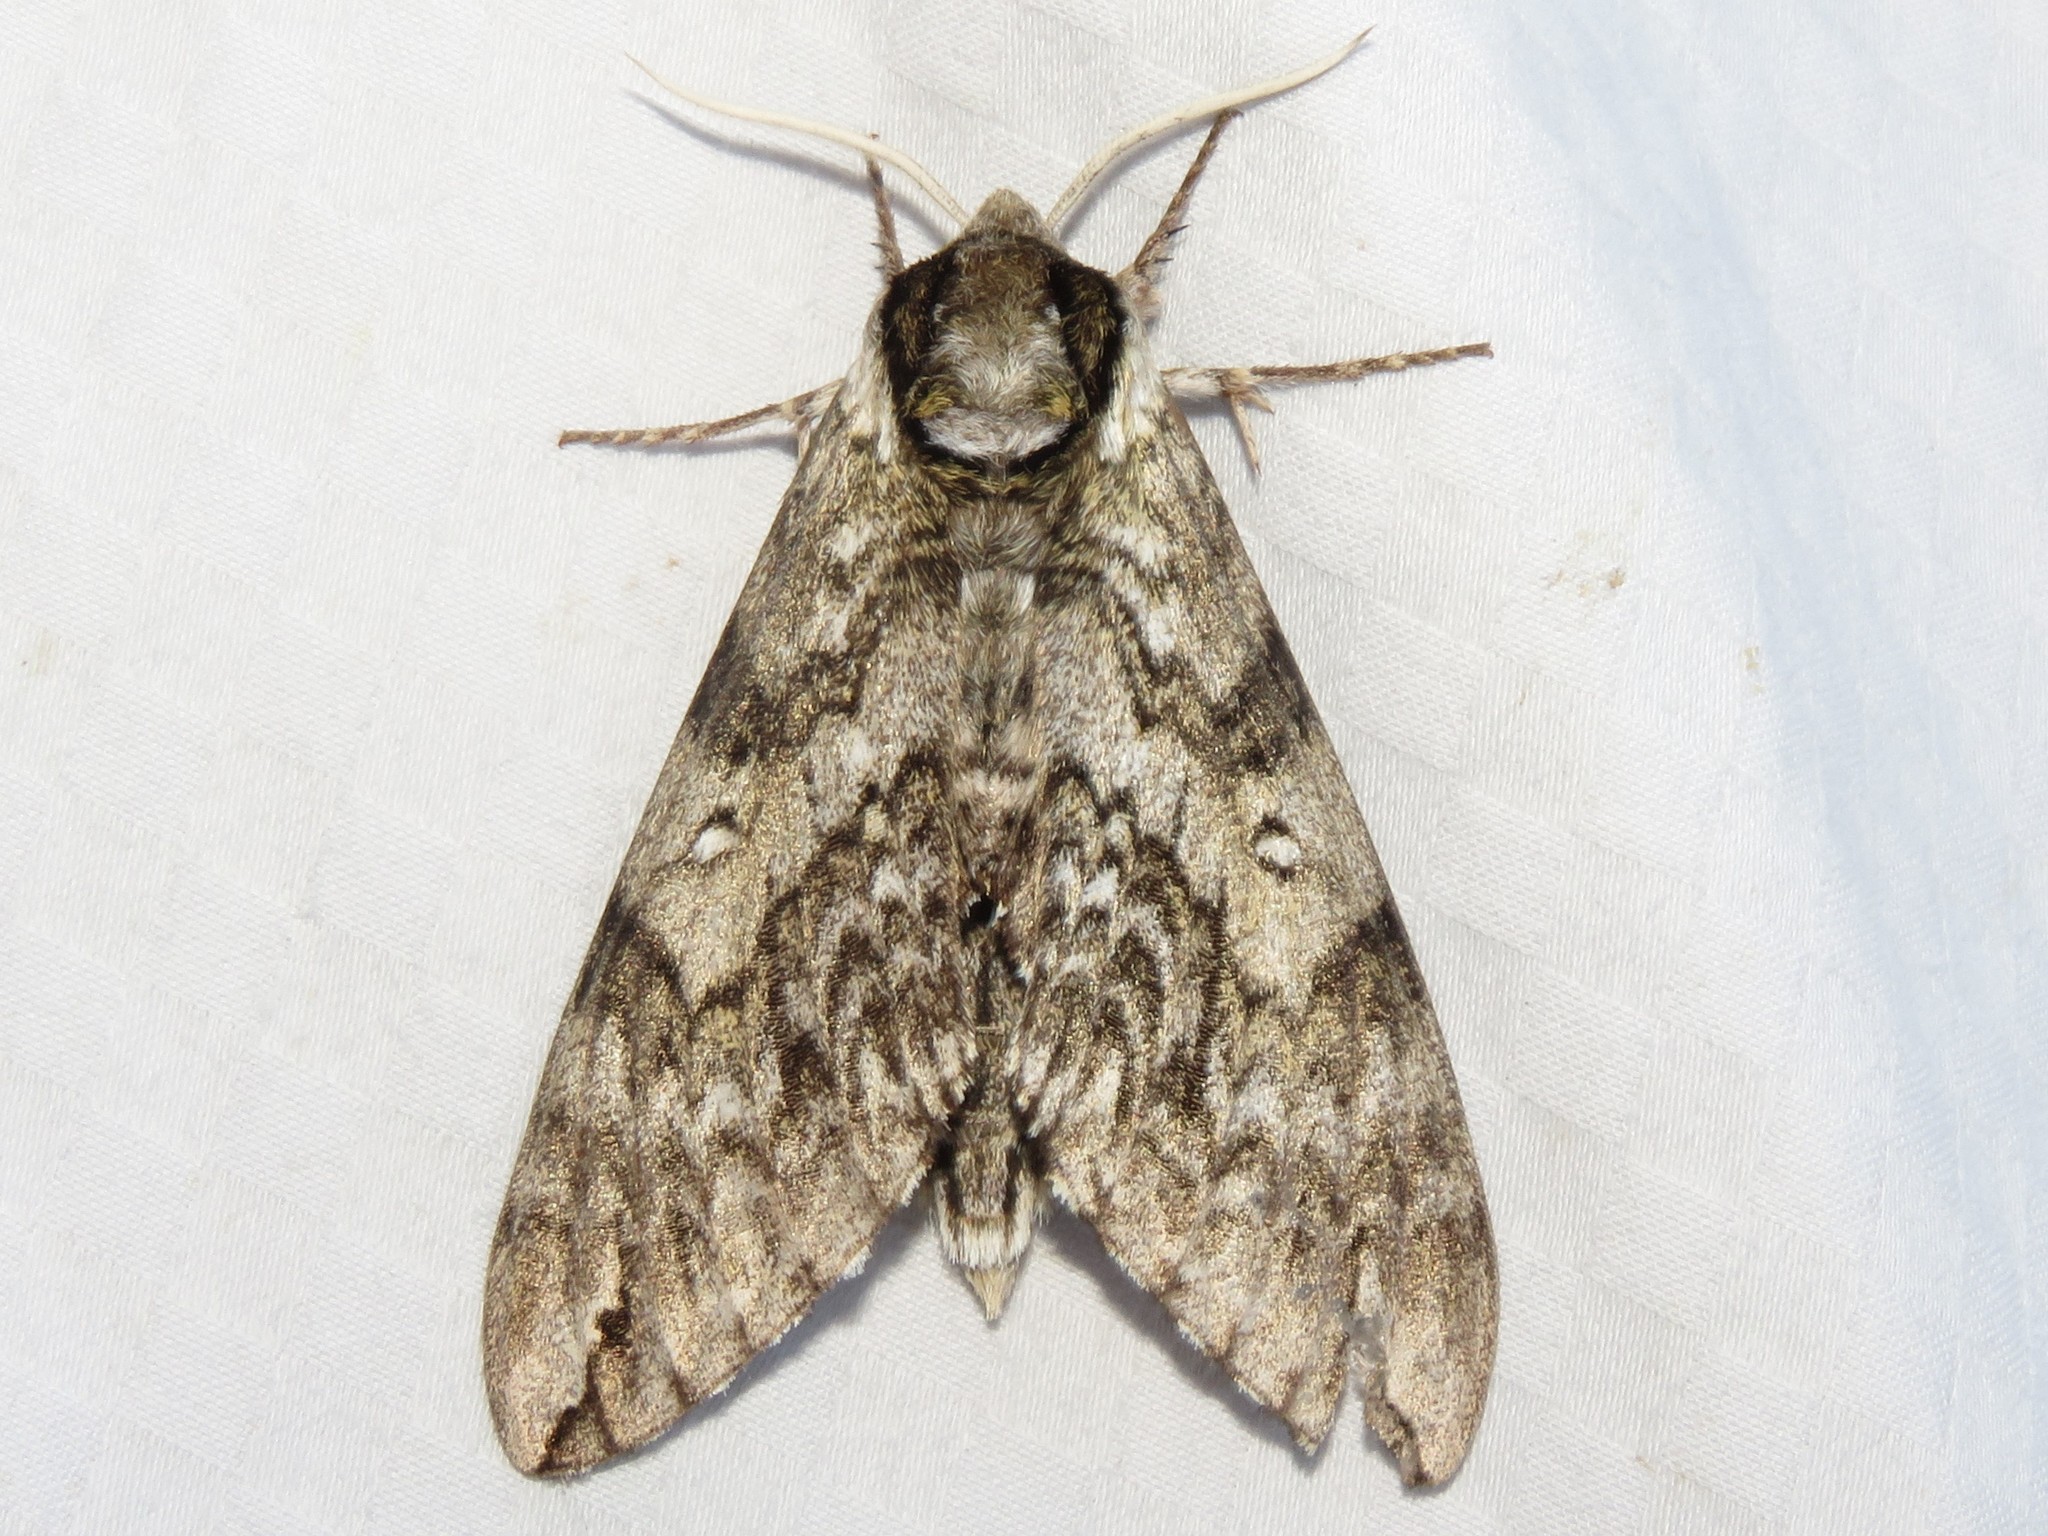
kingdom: Animalia
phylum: Arthropoda
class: Insecta
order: Lepidoptera
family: Sphingidae
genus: Ceratomia
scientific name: Ceratomia undulosa
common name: Waved sphinx
